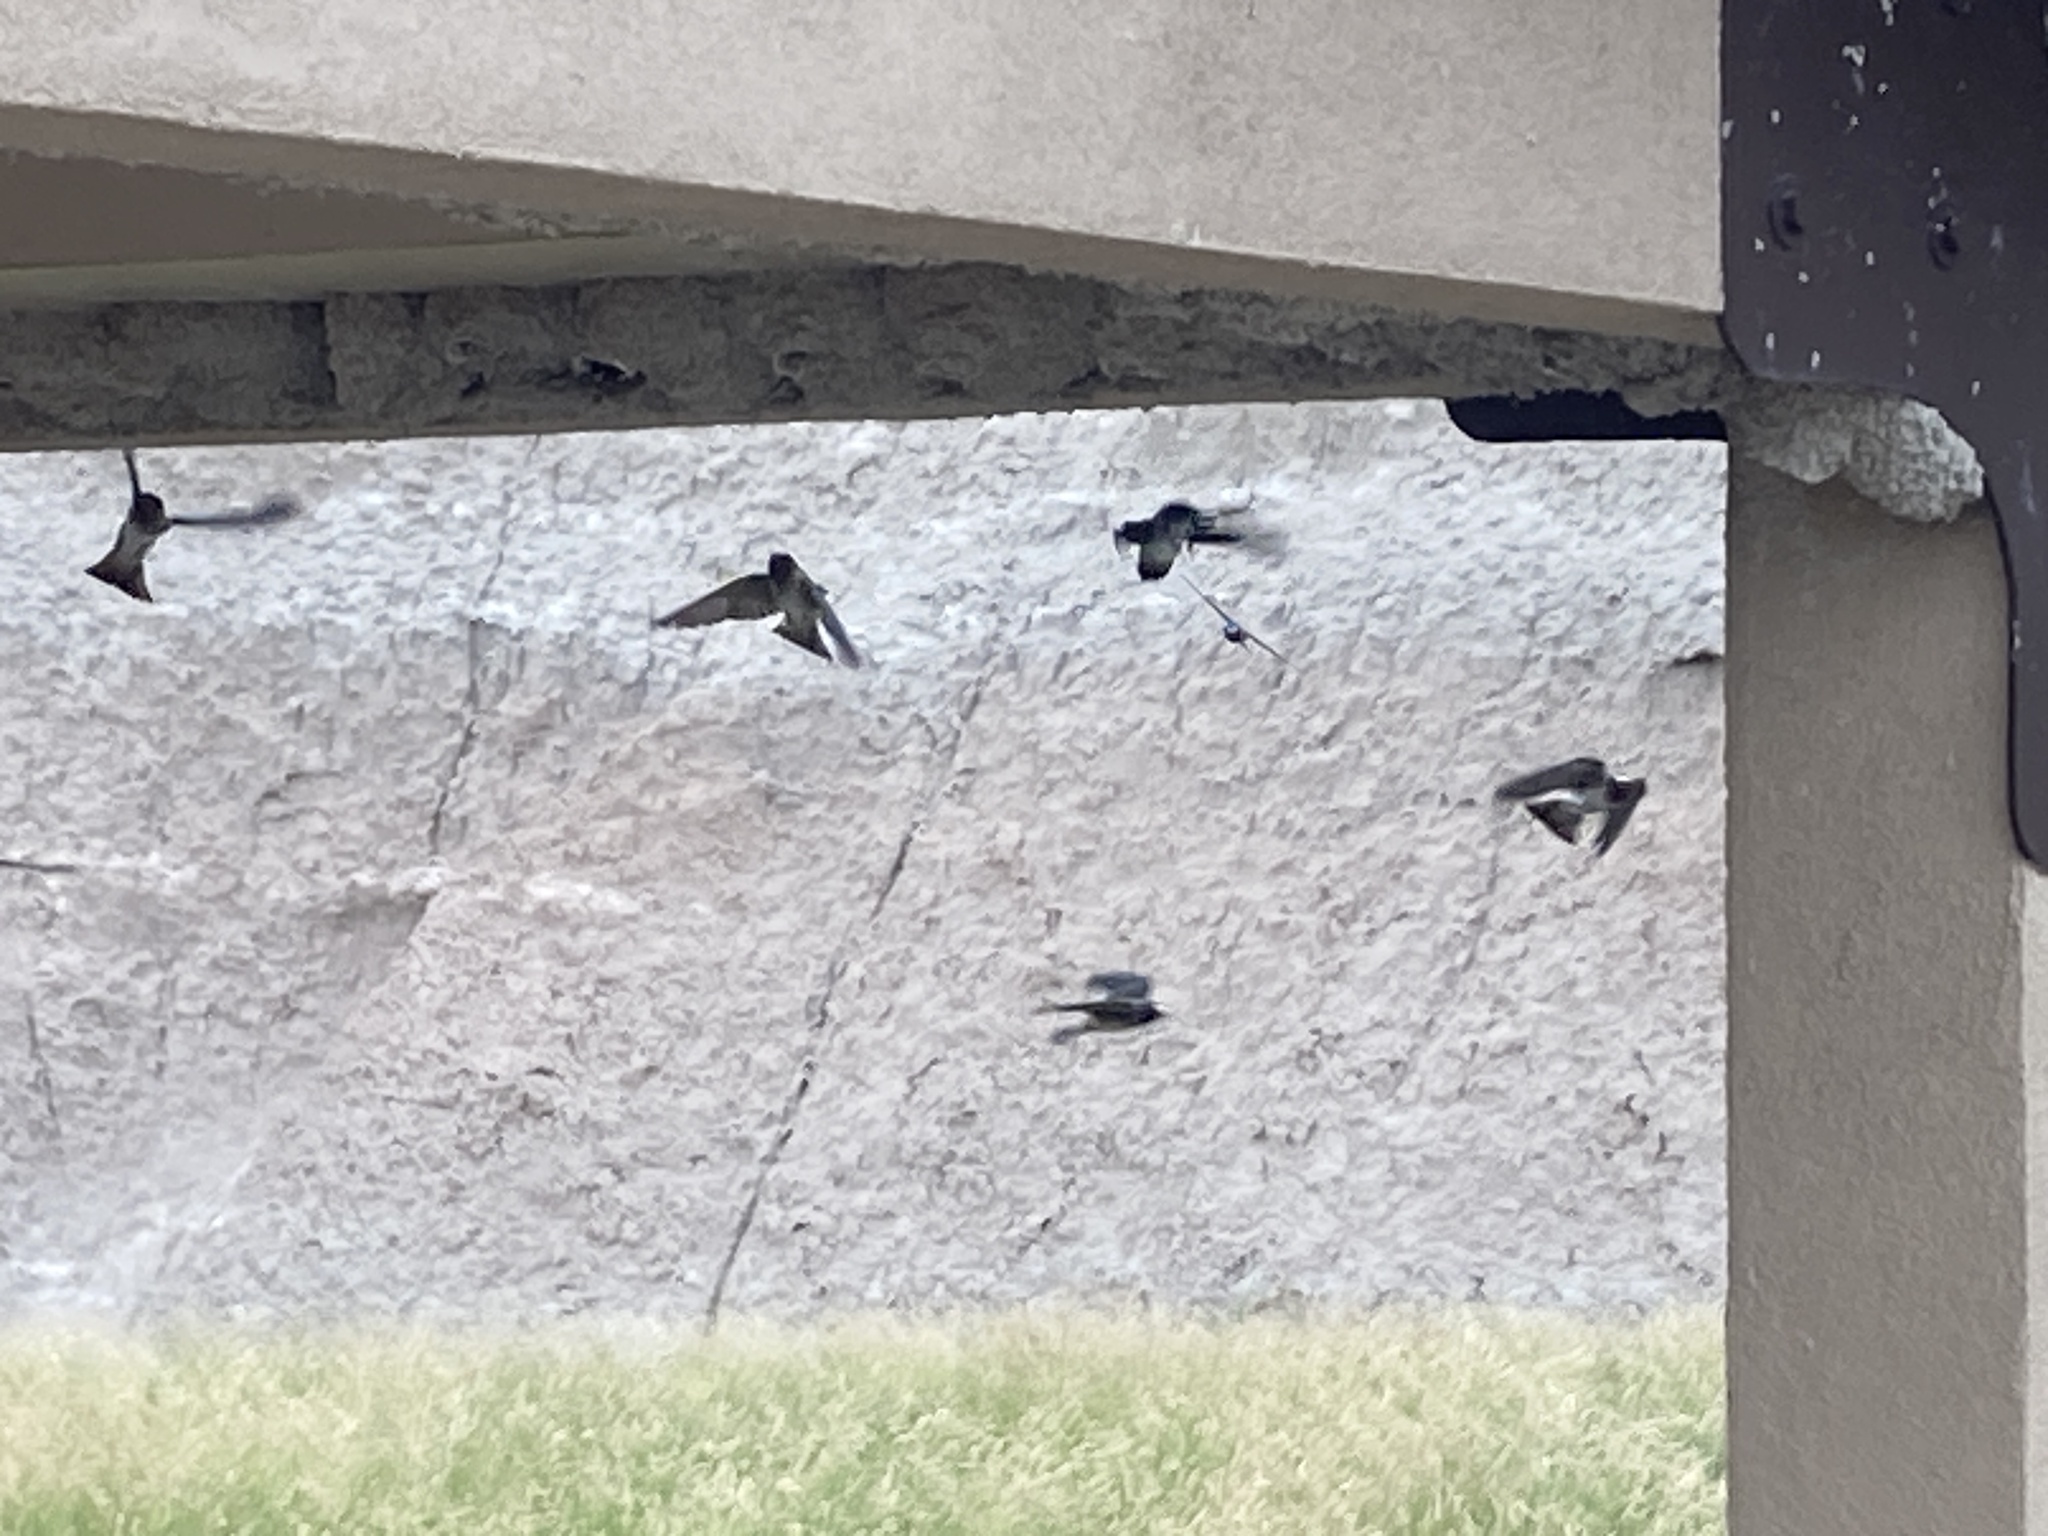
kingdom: Animalia
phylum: Chordata
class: Aves
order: Passeriformes
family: Hirundinidae
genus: Petrochelidon
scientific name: Petrochelidon pyrrhonota
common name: American cliff swallow
